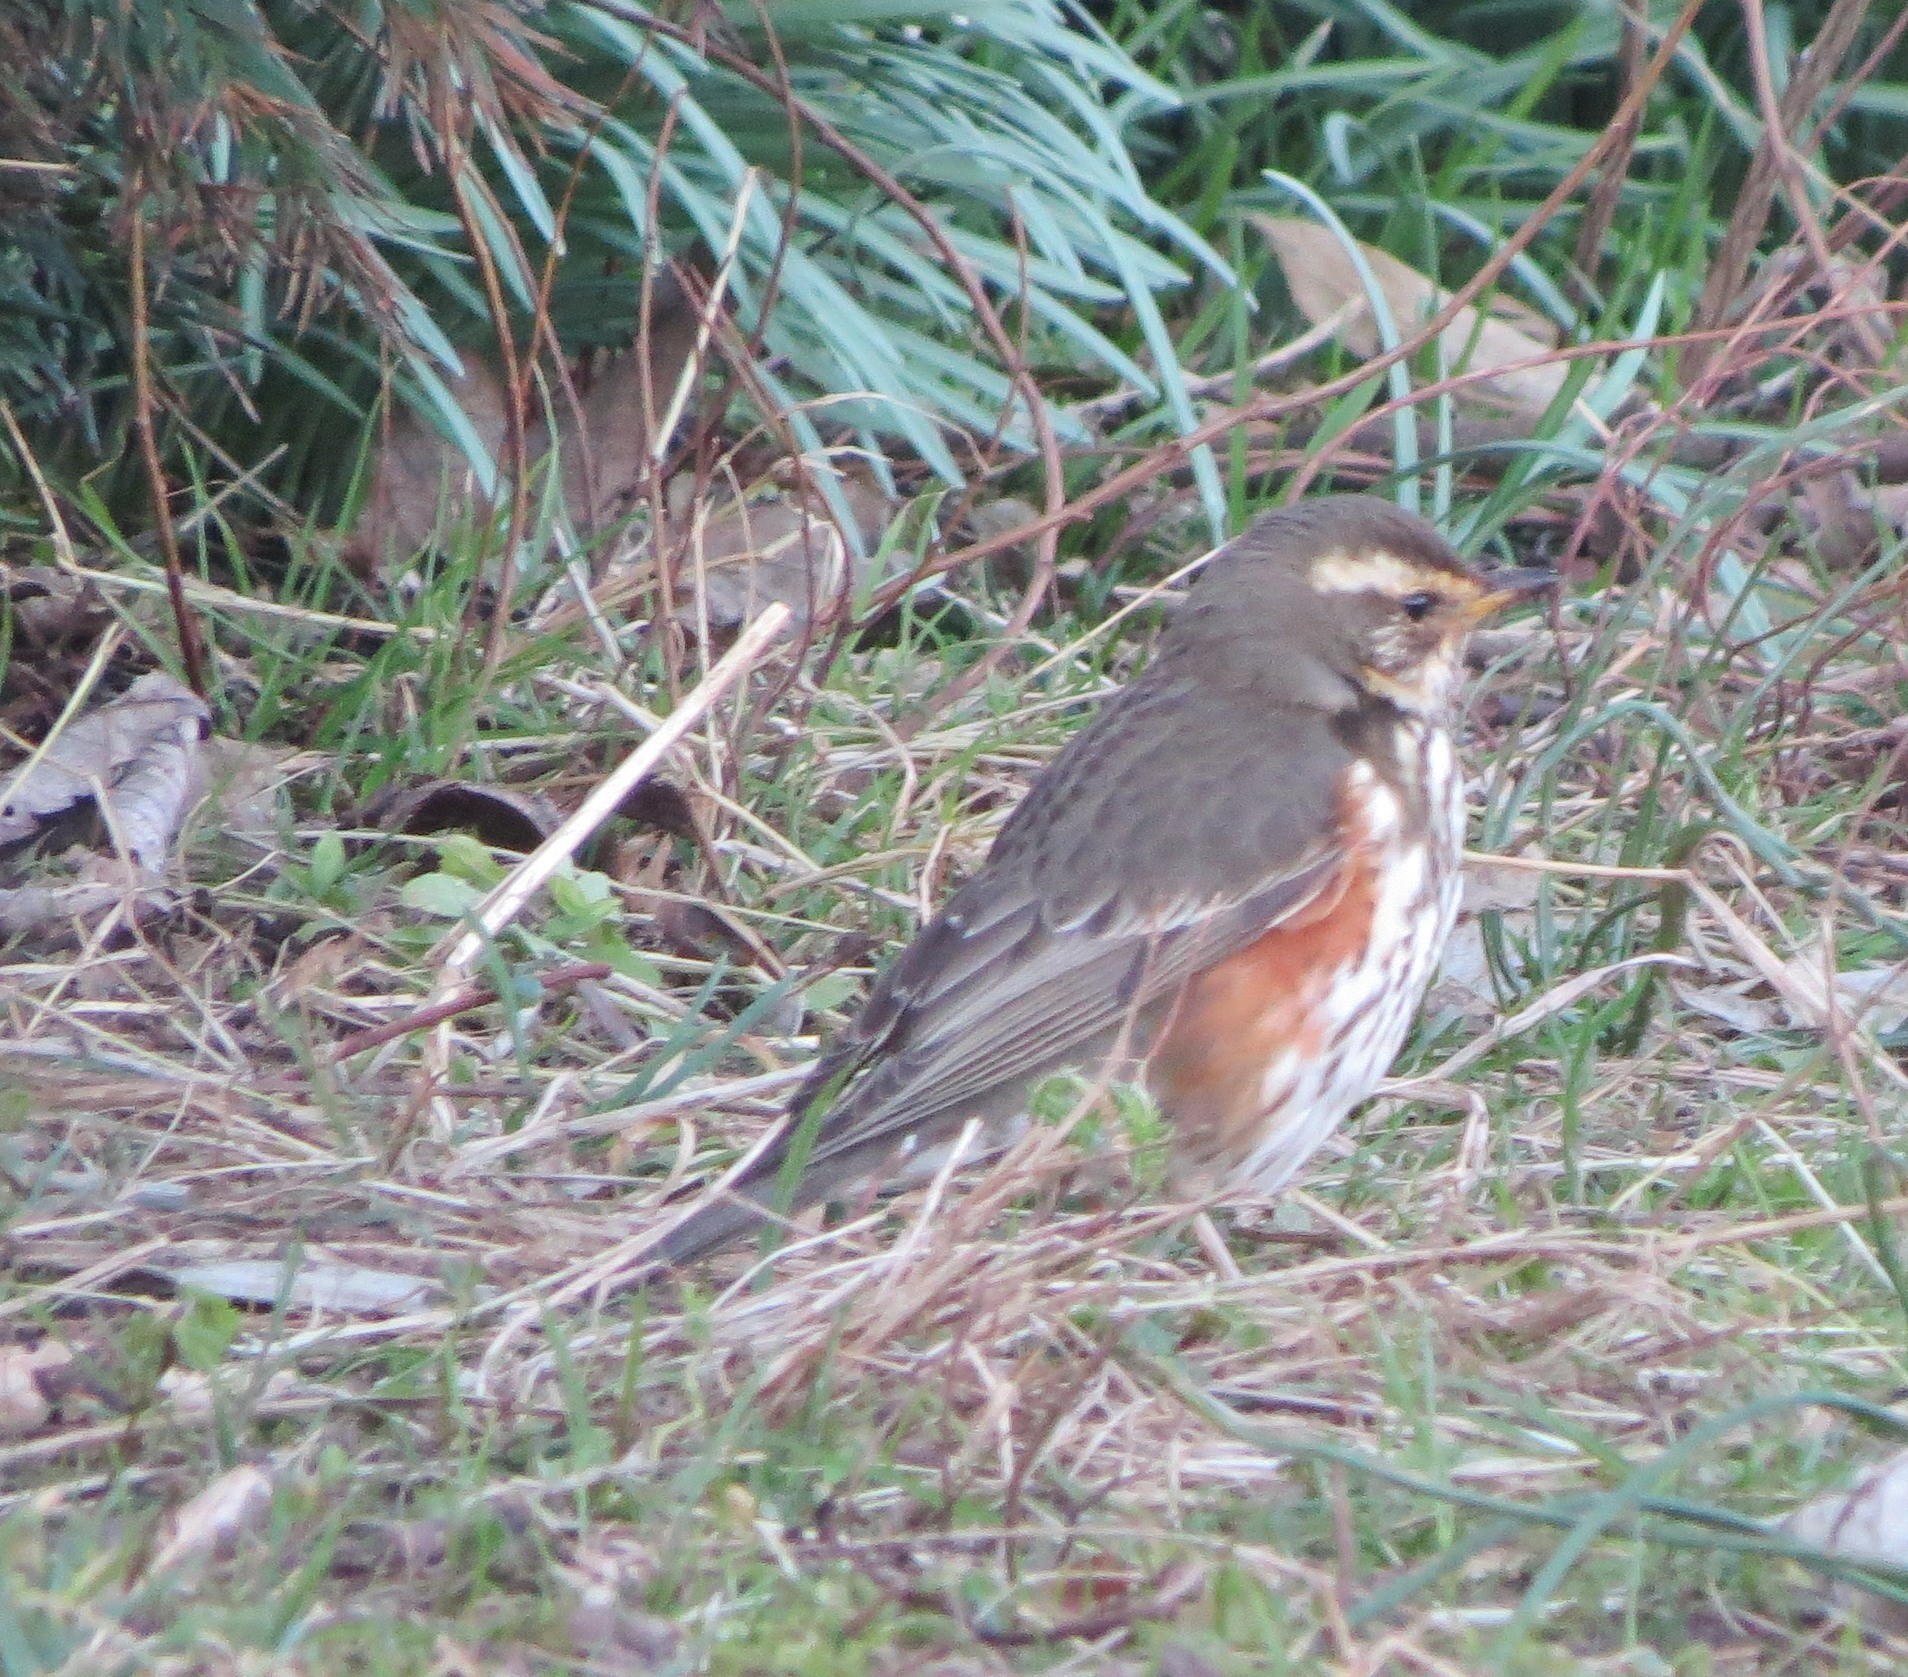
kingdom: Animalia
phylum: Chordata
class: Aves
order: Passeriformes
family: Turdidae
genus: Turdus
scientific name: Turdus iliacus
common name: Redwing
